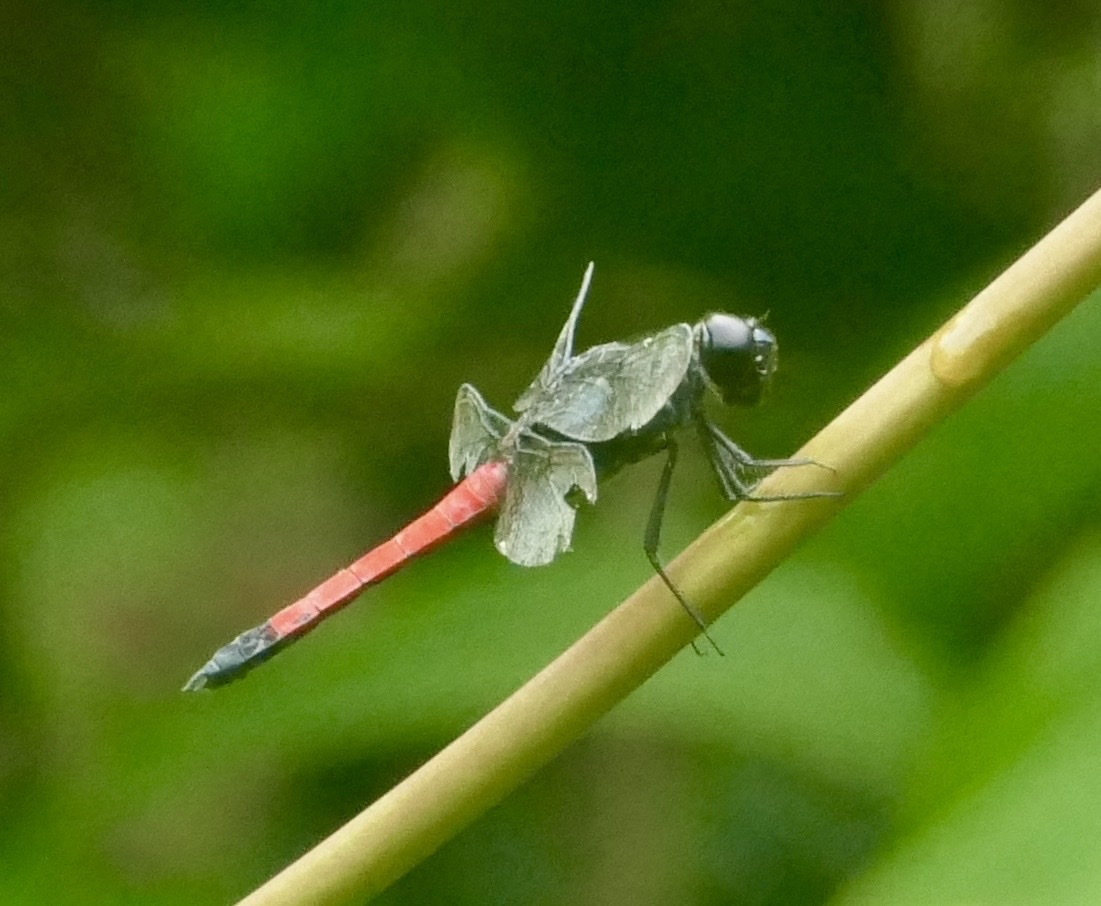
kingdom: Animalia
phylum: Arthropoda
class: Insecta
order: Odonata
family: Libellulidae
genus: Lathrecista
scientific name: Lathrecista asiatica
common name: Scarlet grenadier
